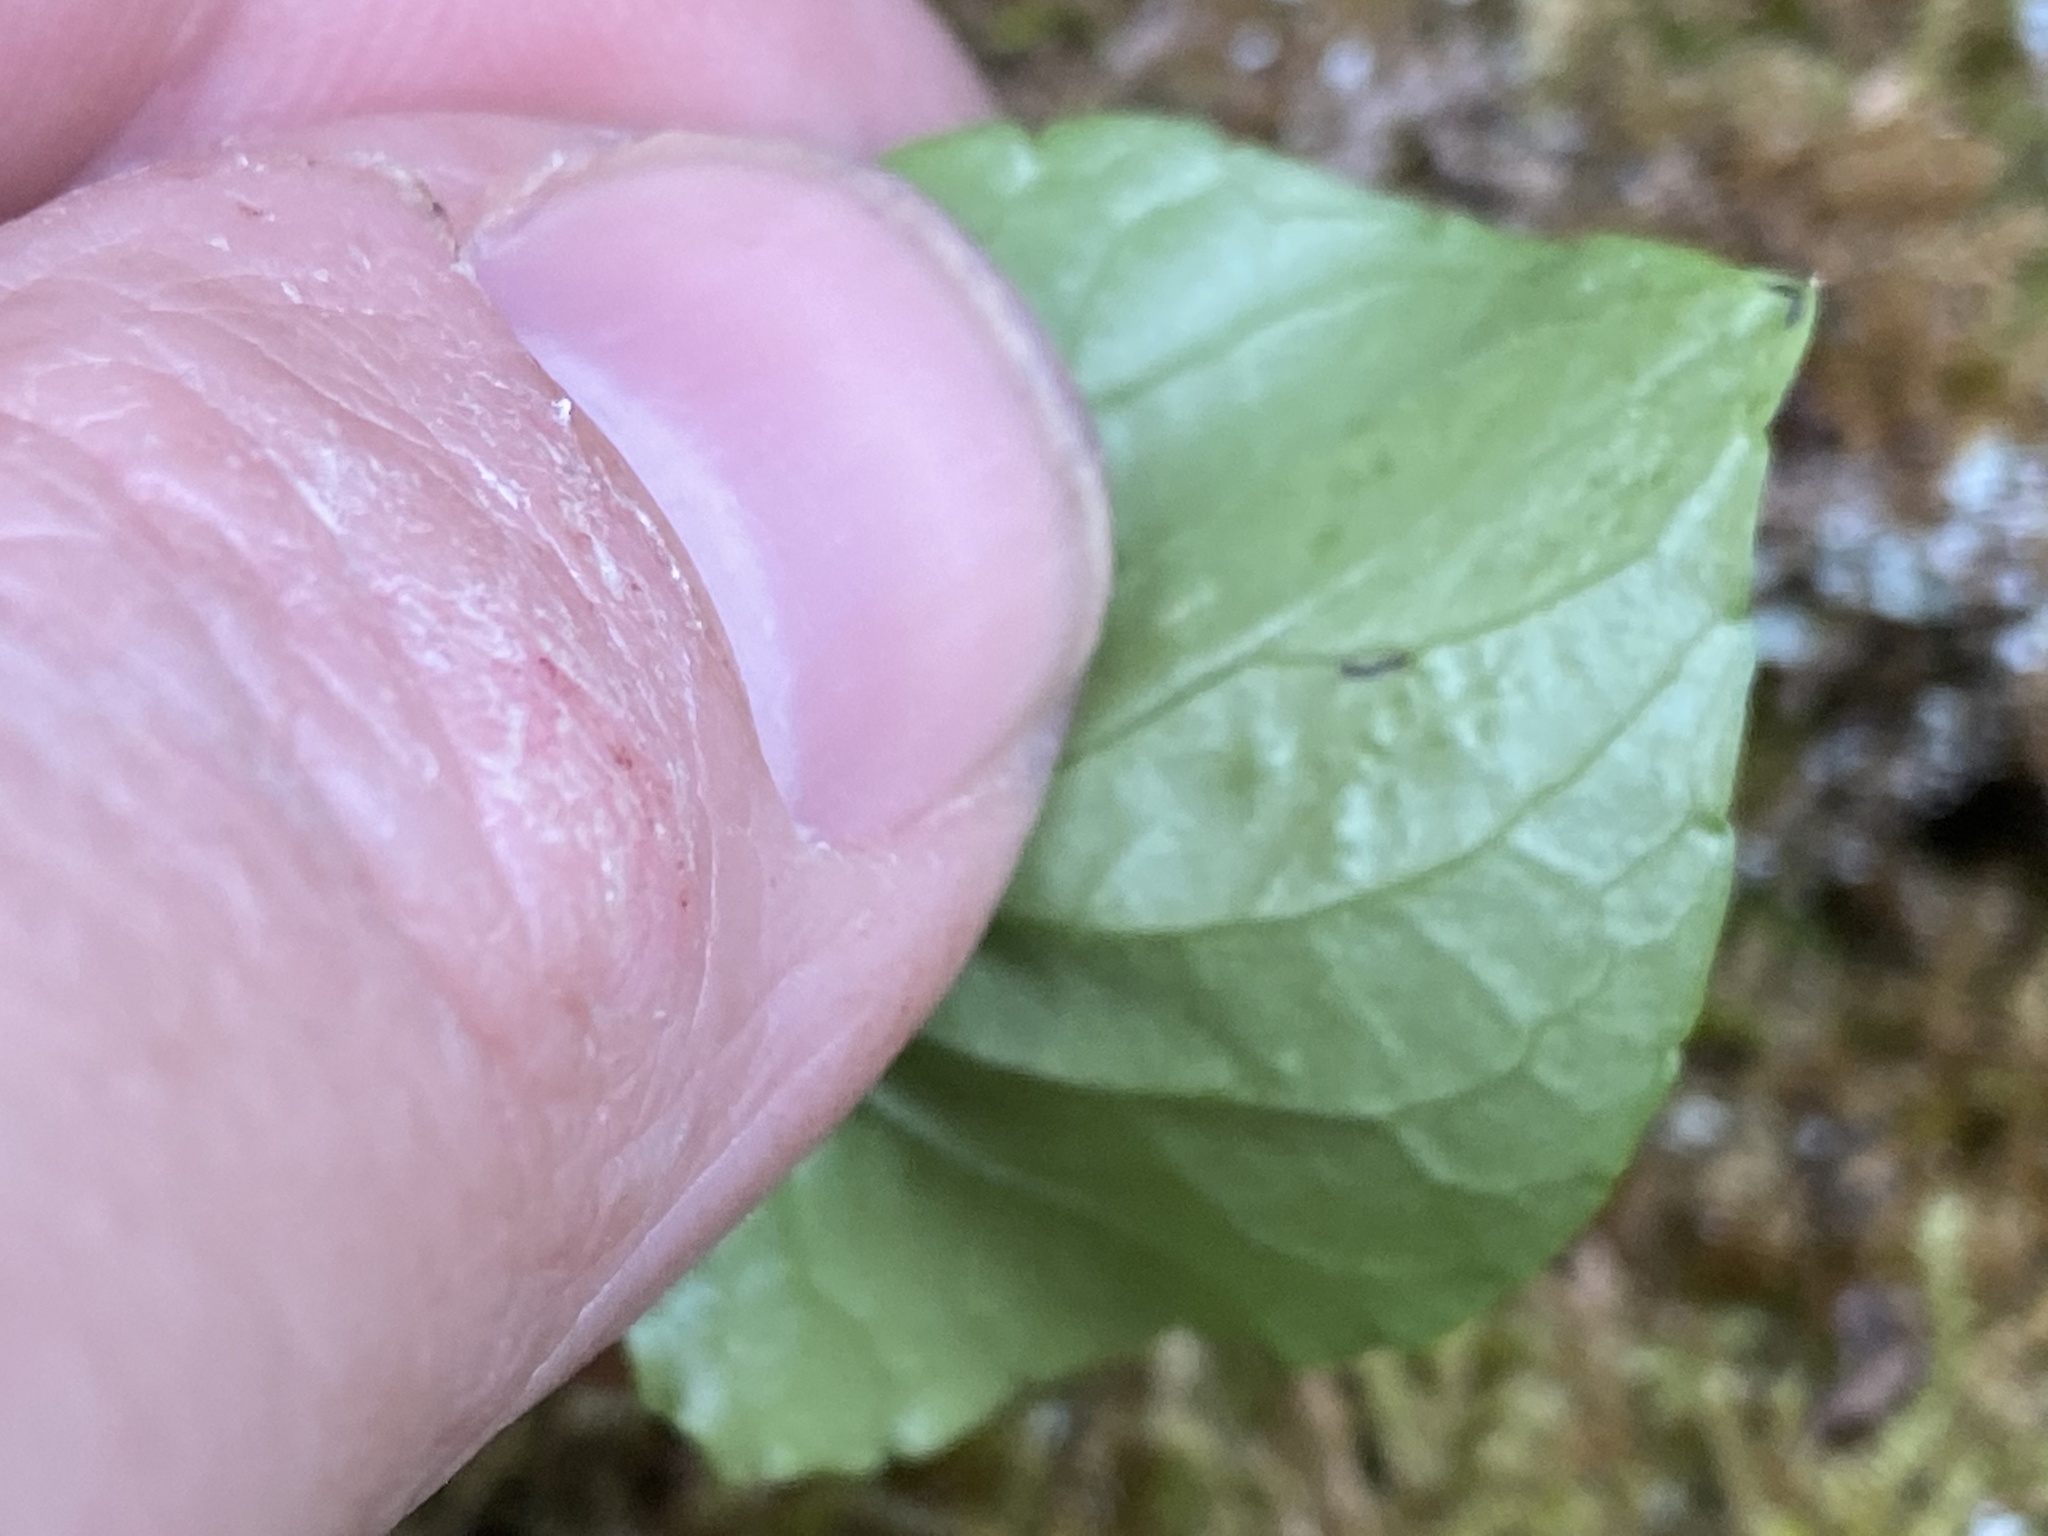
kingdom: Plantae
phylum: Tracheophyta
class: Magnoliopsida
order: Malpighiales
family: Violaceae
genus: Viola
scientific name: Viola blanda
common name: Sweet white violet
